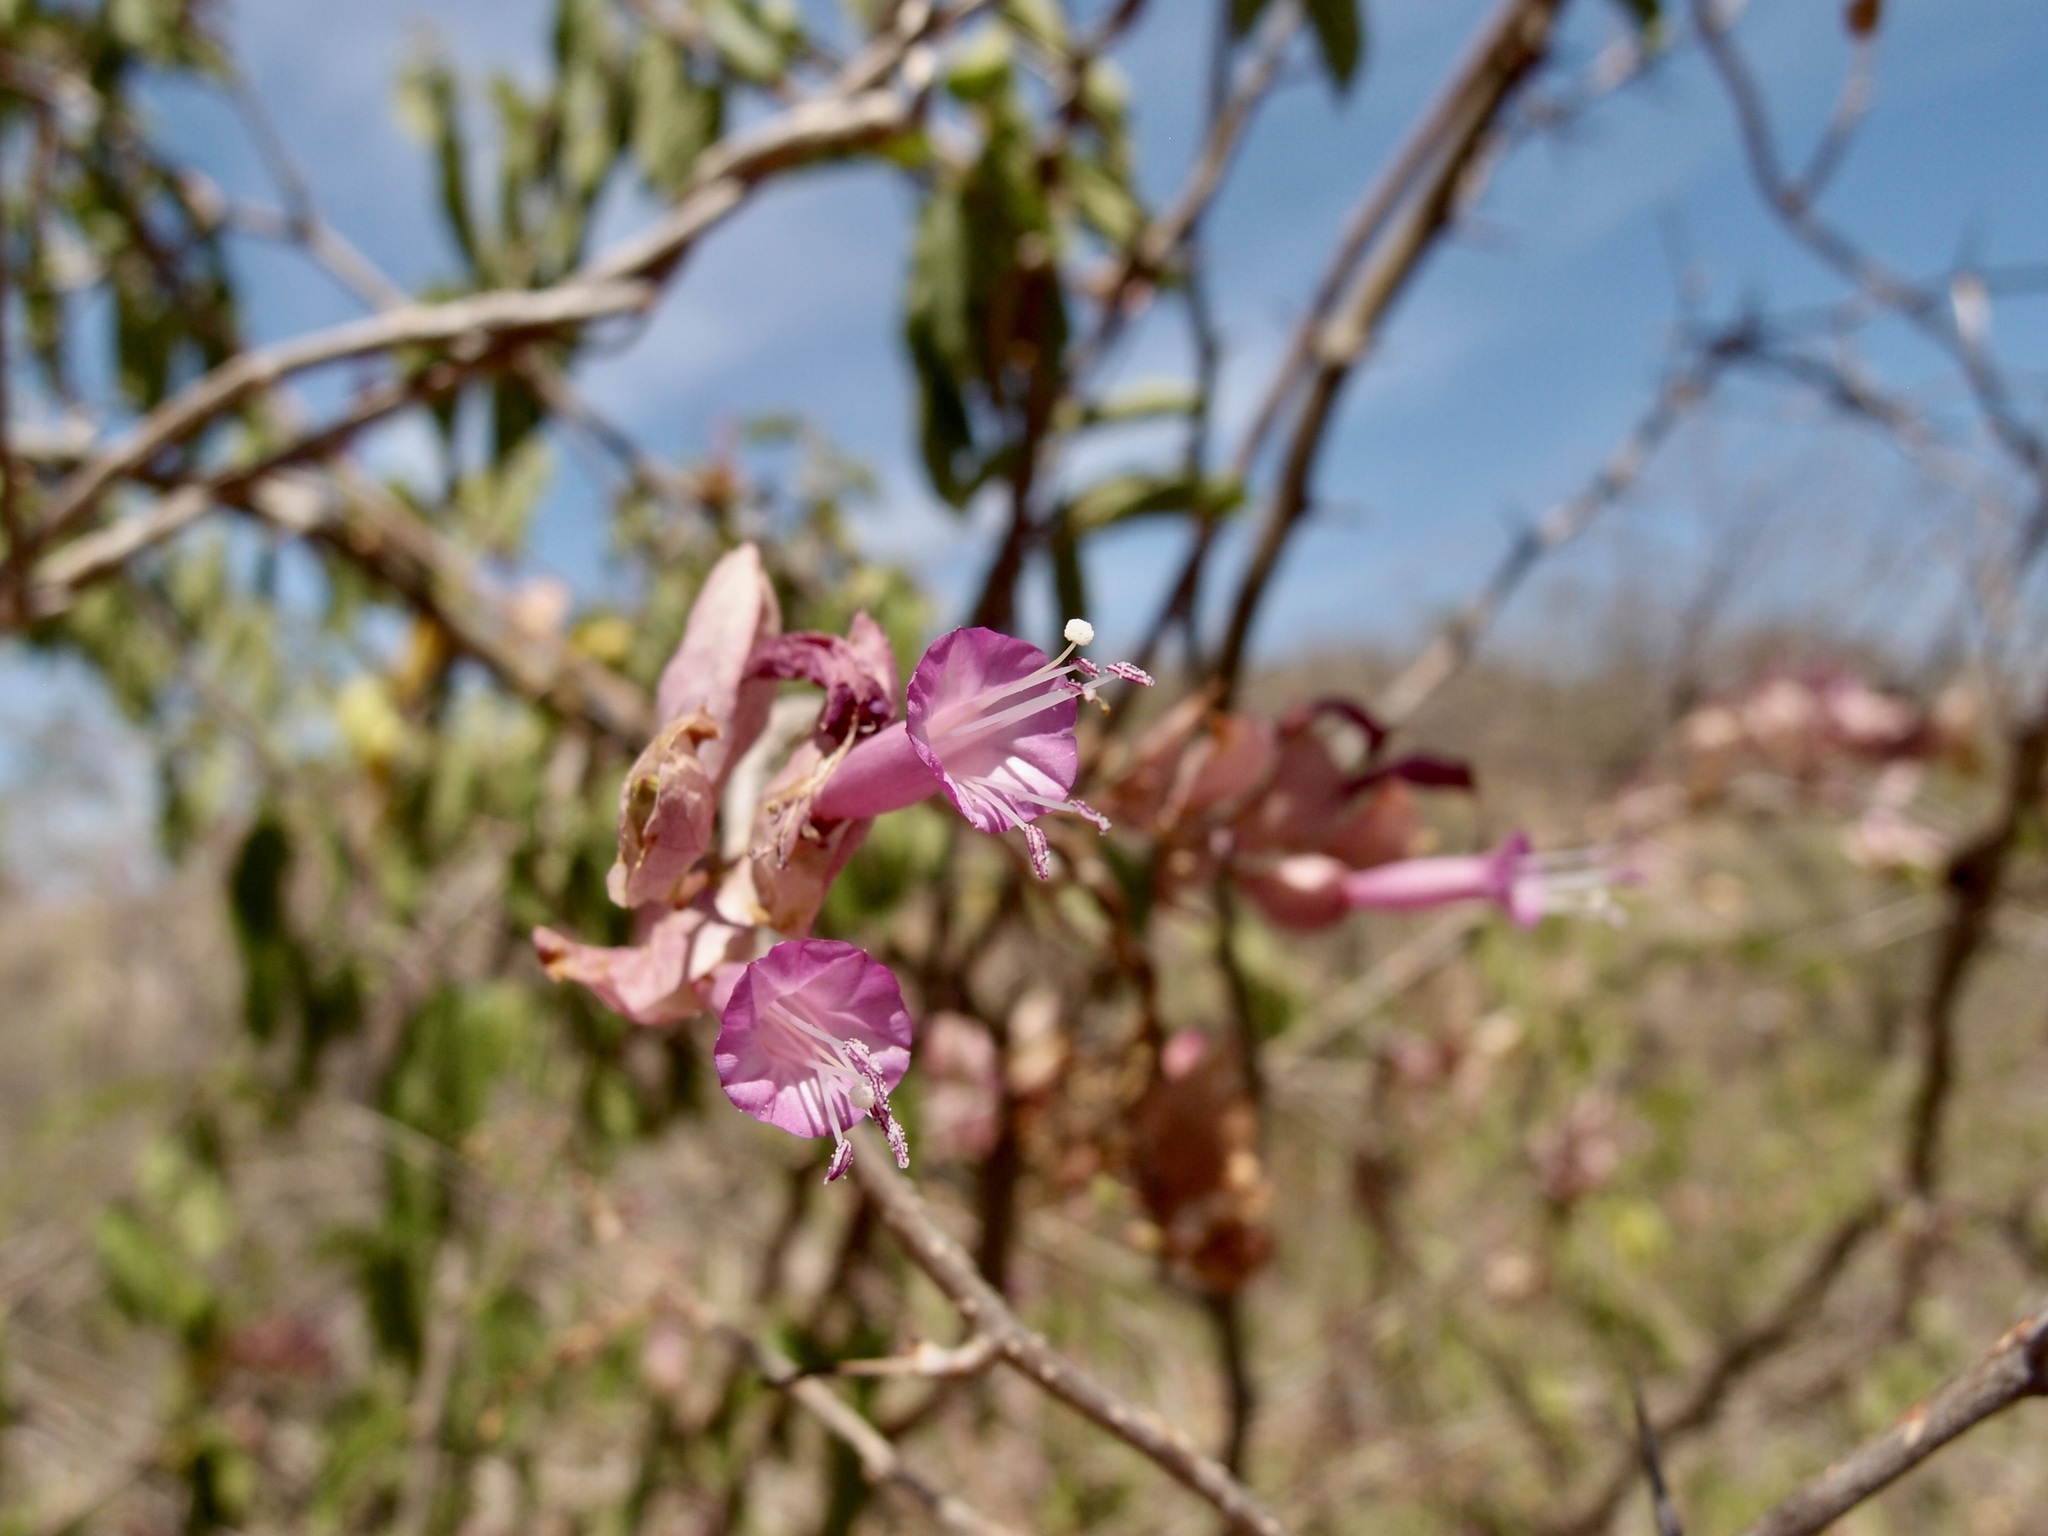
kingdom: Plantae
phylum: Tracheophyta
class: Magnoliopsida
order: Solanales
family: Convolvulaceae
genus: Ipomoea
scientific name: Ipomoea bracteata
